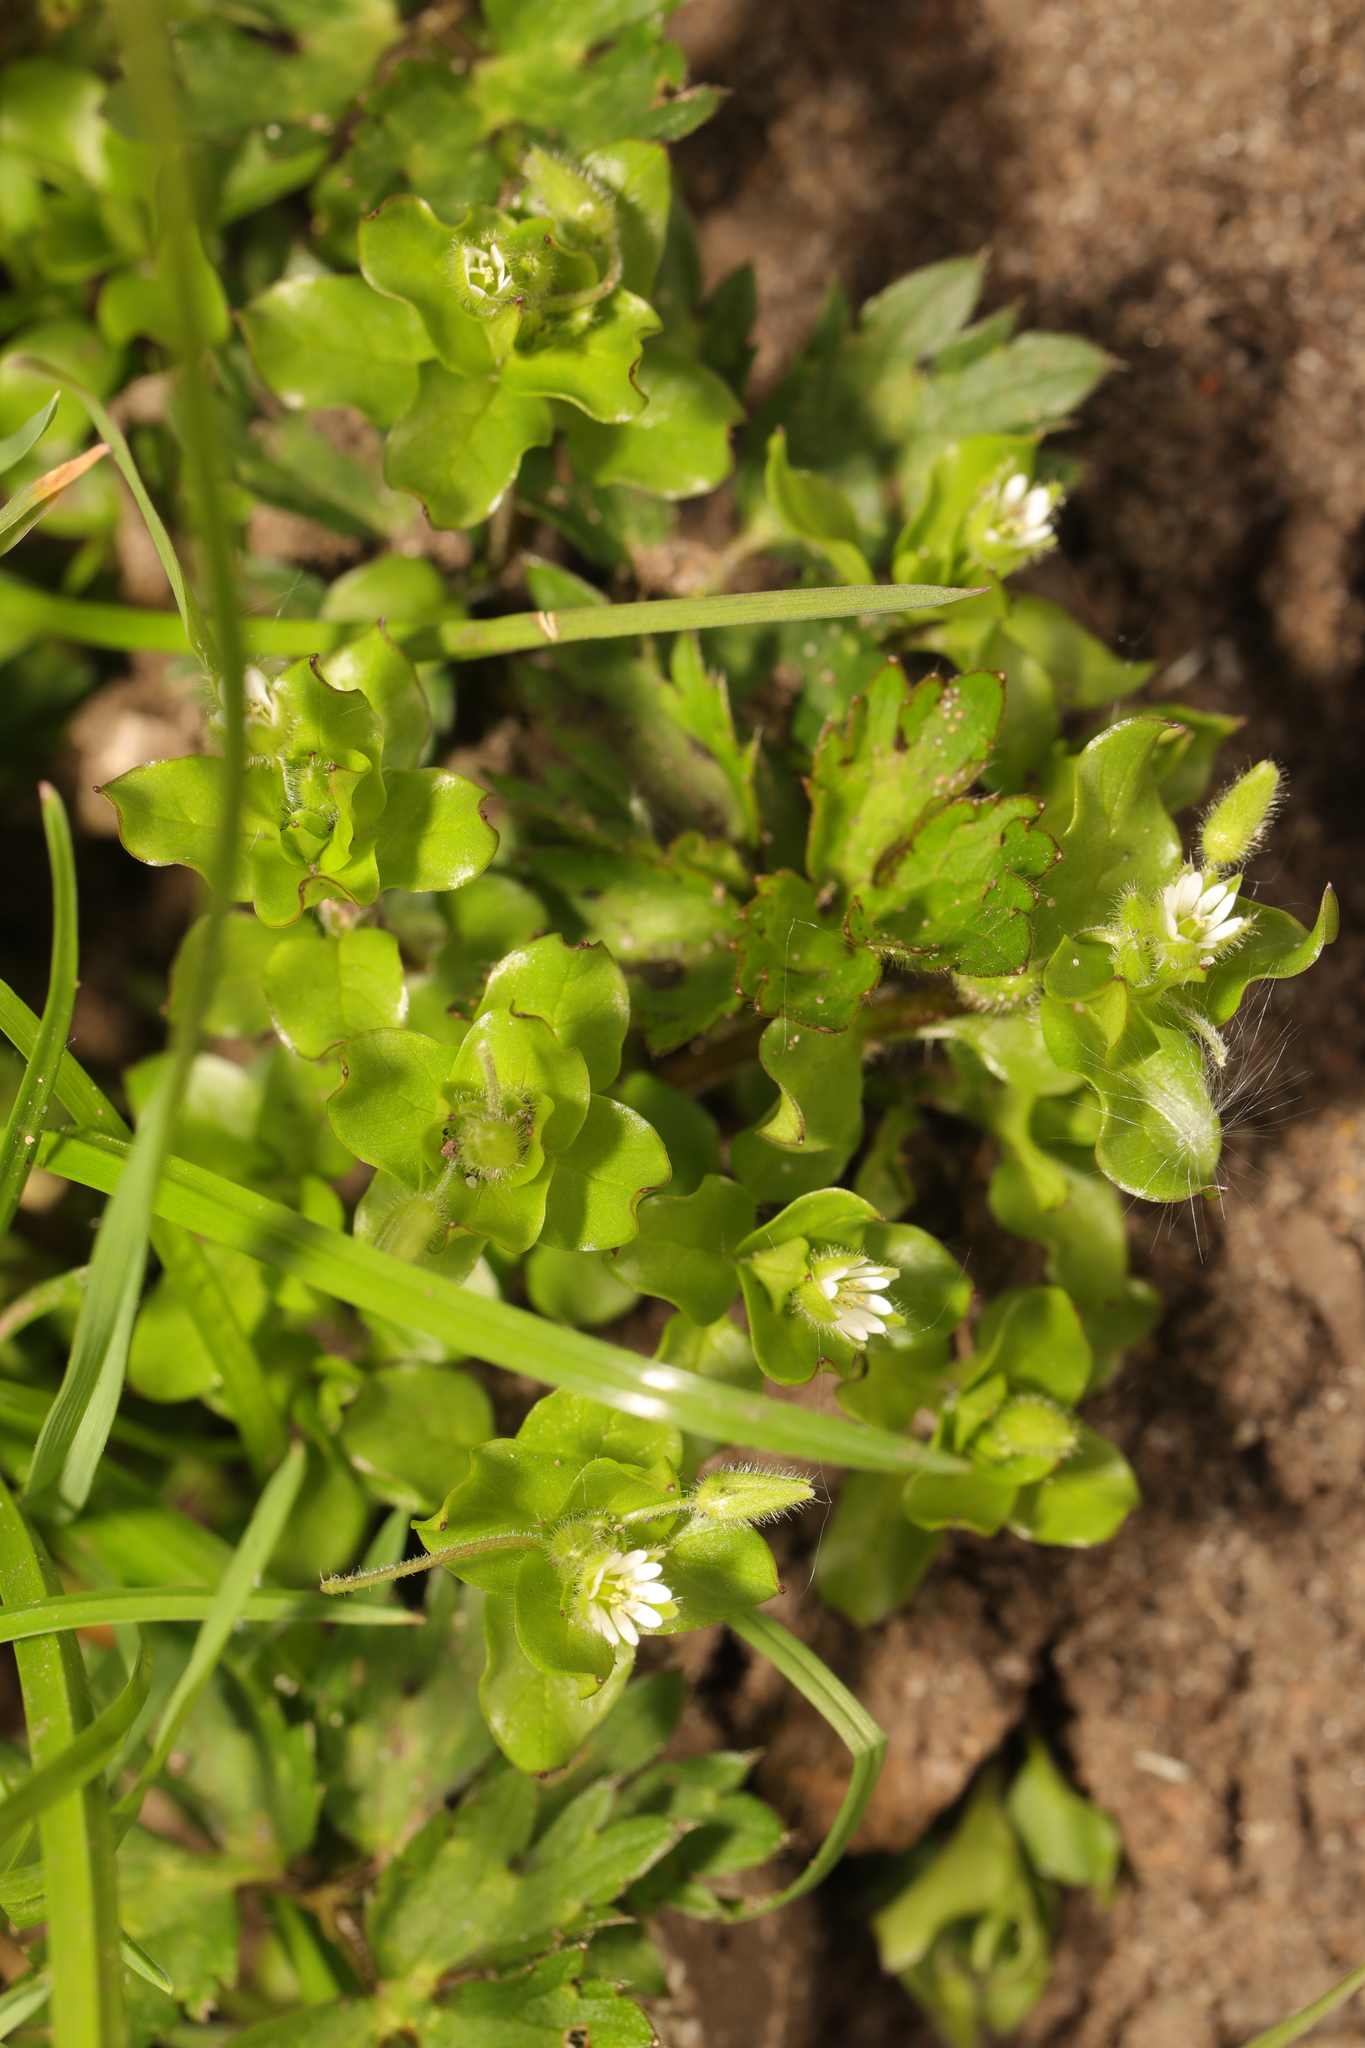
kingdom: Plantae
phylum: Tracheophyta
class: Magnoliopsida
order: Caryophyllales
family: Caryophyllaceae
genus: Stellaria
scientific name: Stellaria media
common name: Common chickweed
